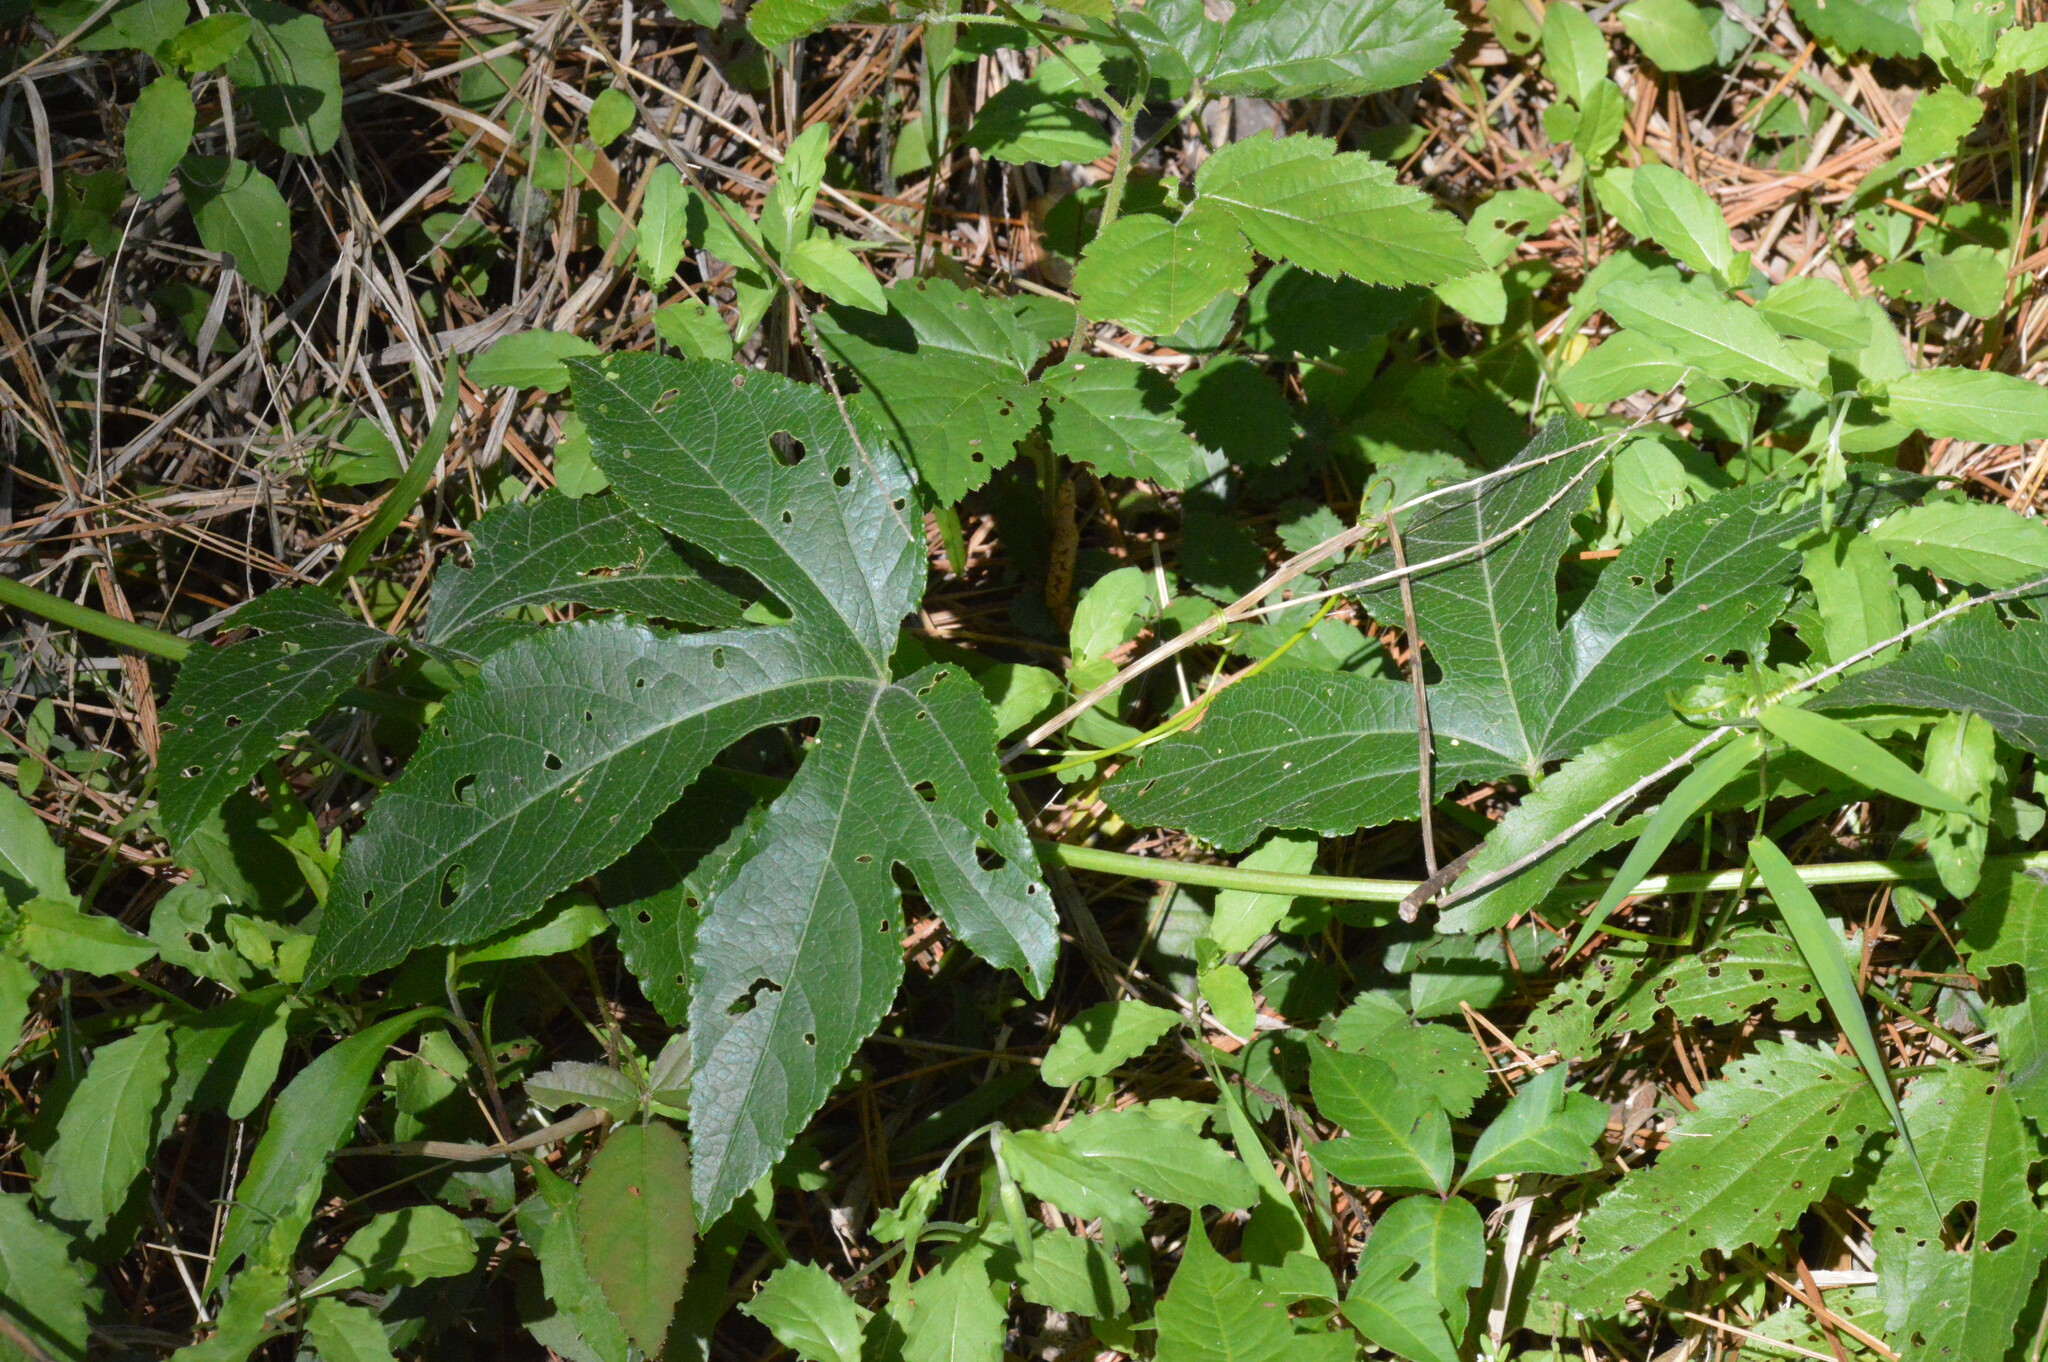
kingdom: Plantae
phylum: Tracheophyta
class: Magnoliopsida
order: Malpighiales
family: Passifloraceae
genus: Passiflora
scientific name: Passiflora incarnata
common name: Apricot-vine
